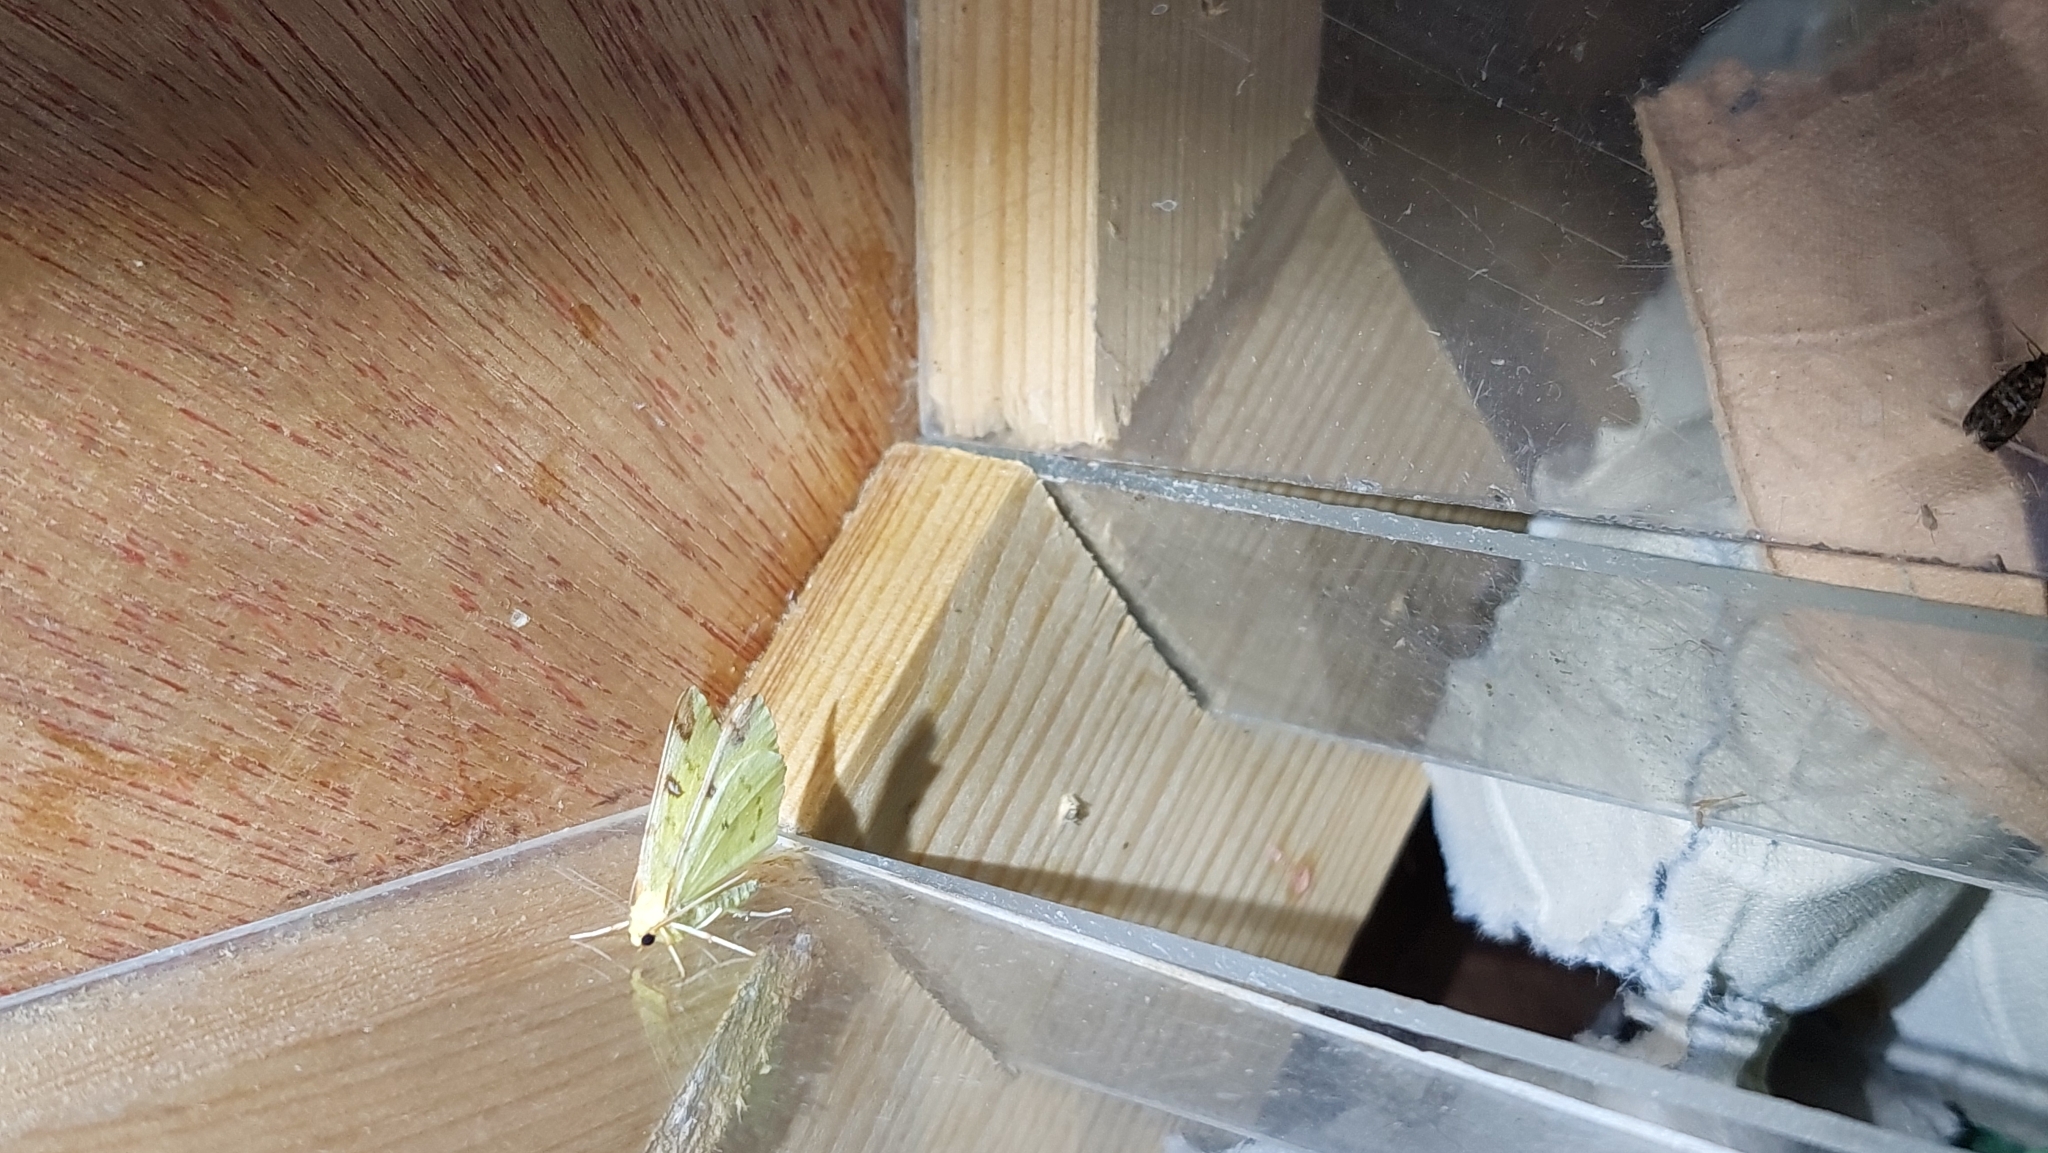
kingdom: Animalia
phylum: Arthropoda
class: Insecta
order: Lepidoptera
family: Geometridae
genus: Opisthograptis
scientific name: Opisthograptis luteolata
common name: Brimstone moth
